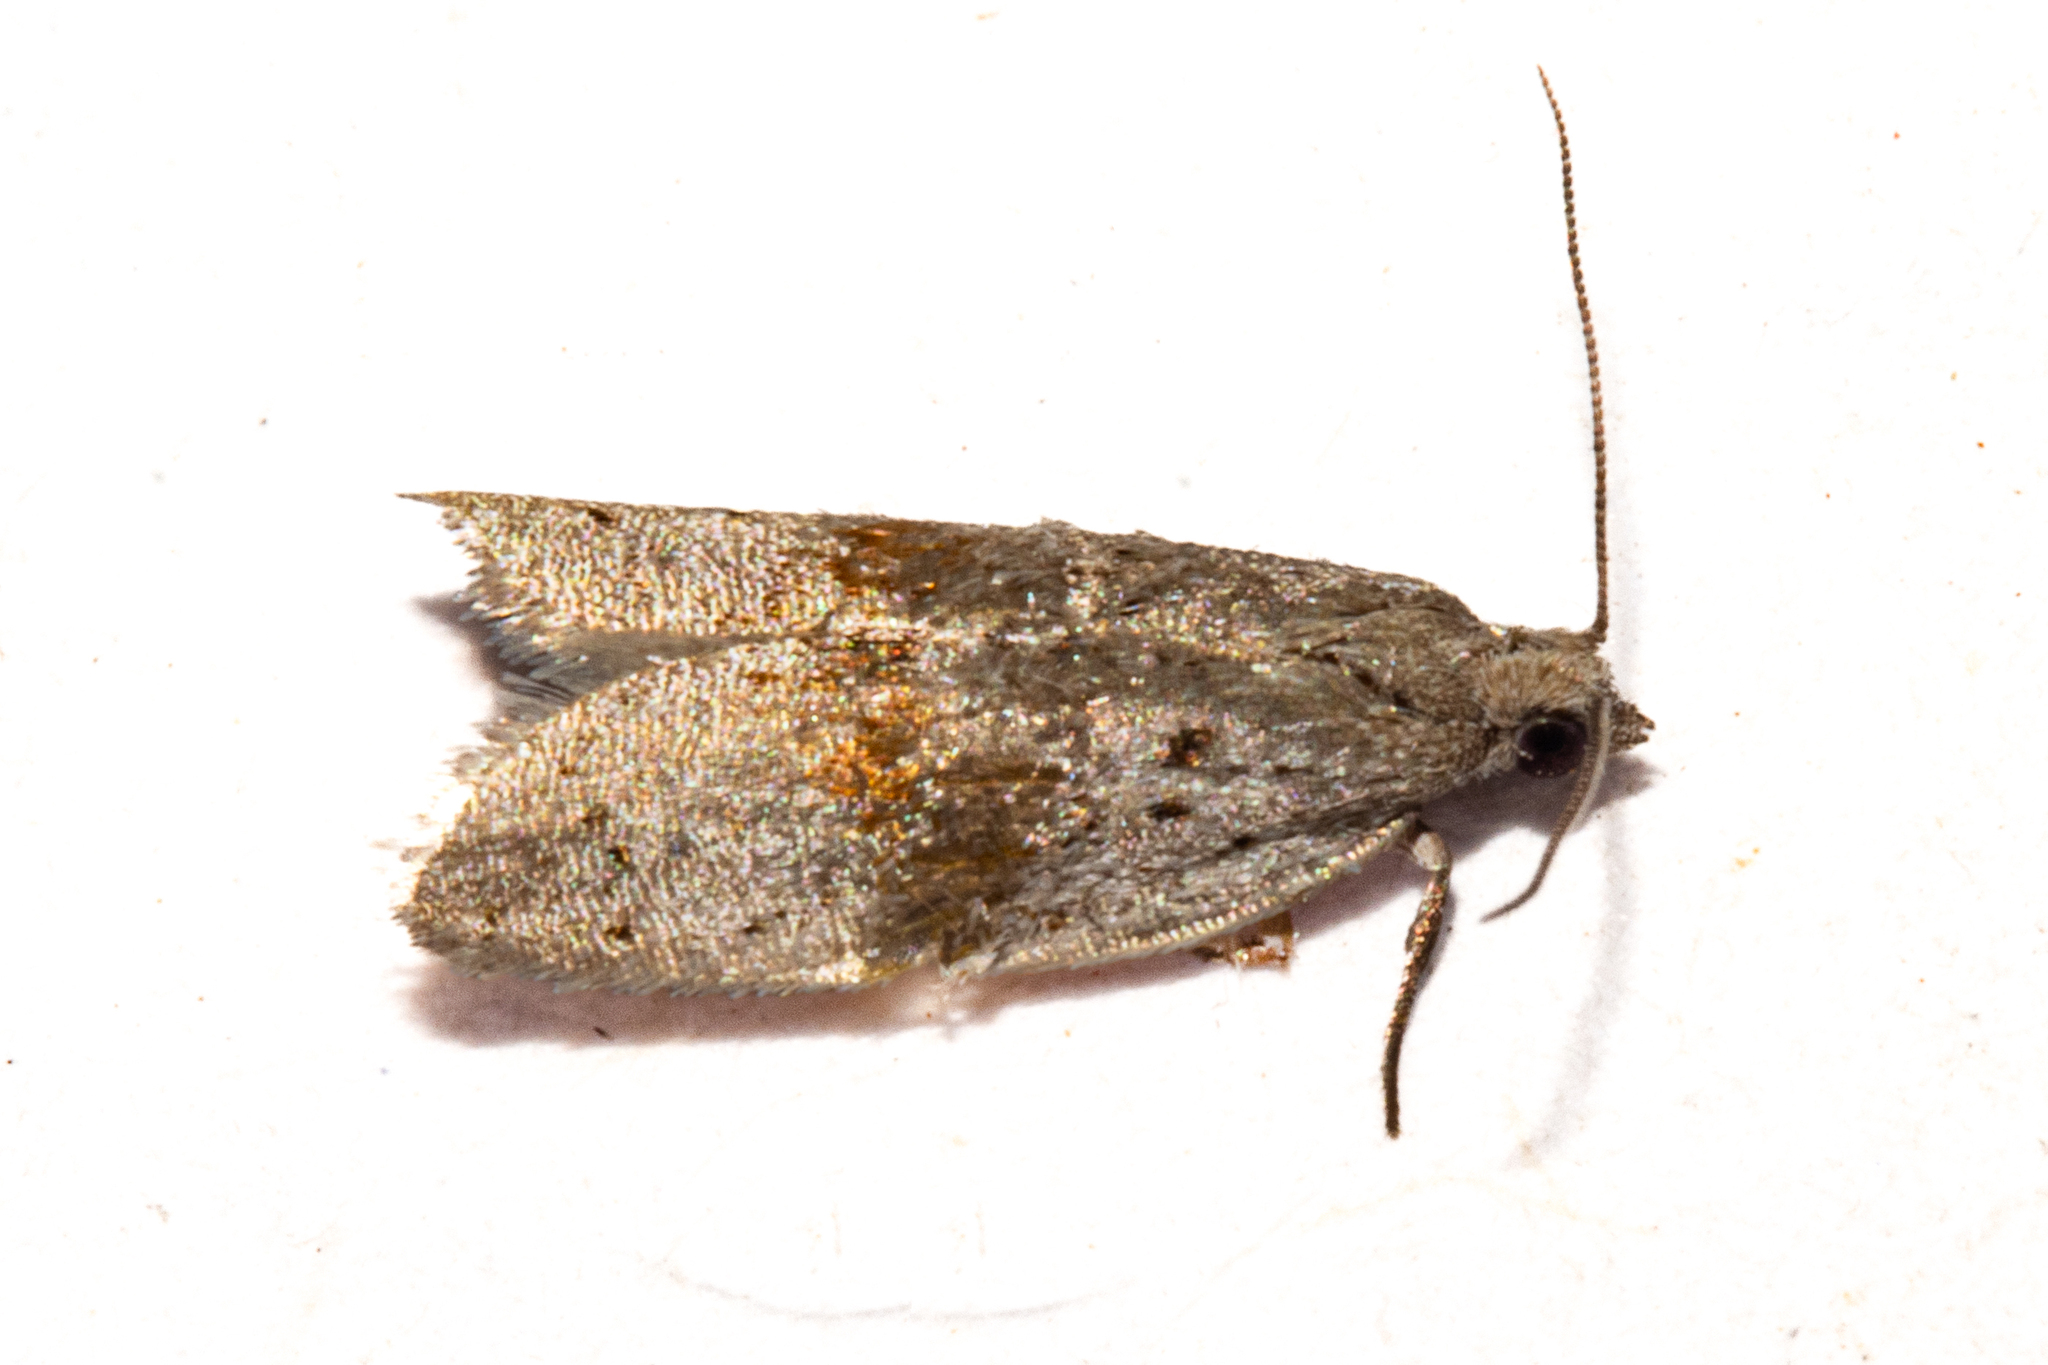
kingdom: Animalia
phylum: Arthropoda
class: Insecta
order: Lepidoptera
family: Tortricidae
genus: Ericodesma
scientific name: Ericodesma cuneata
